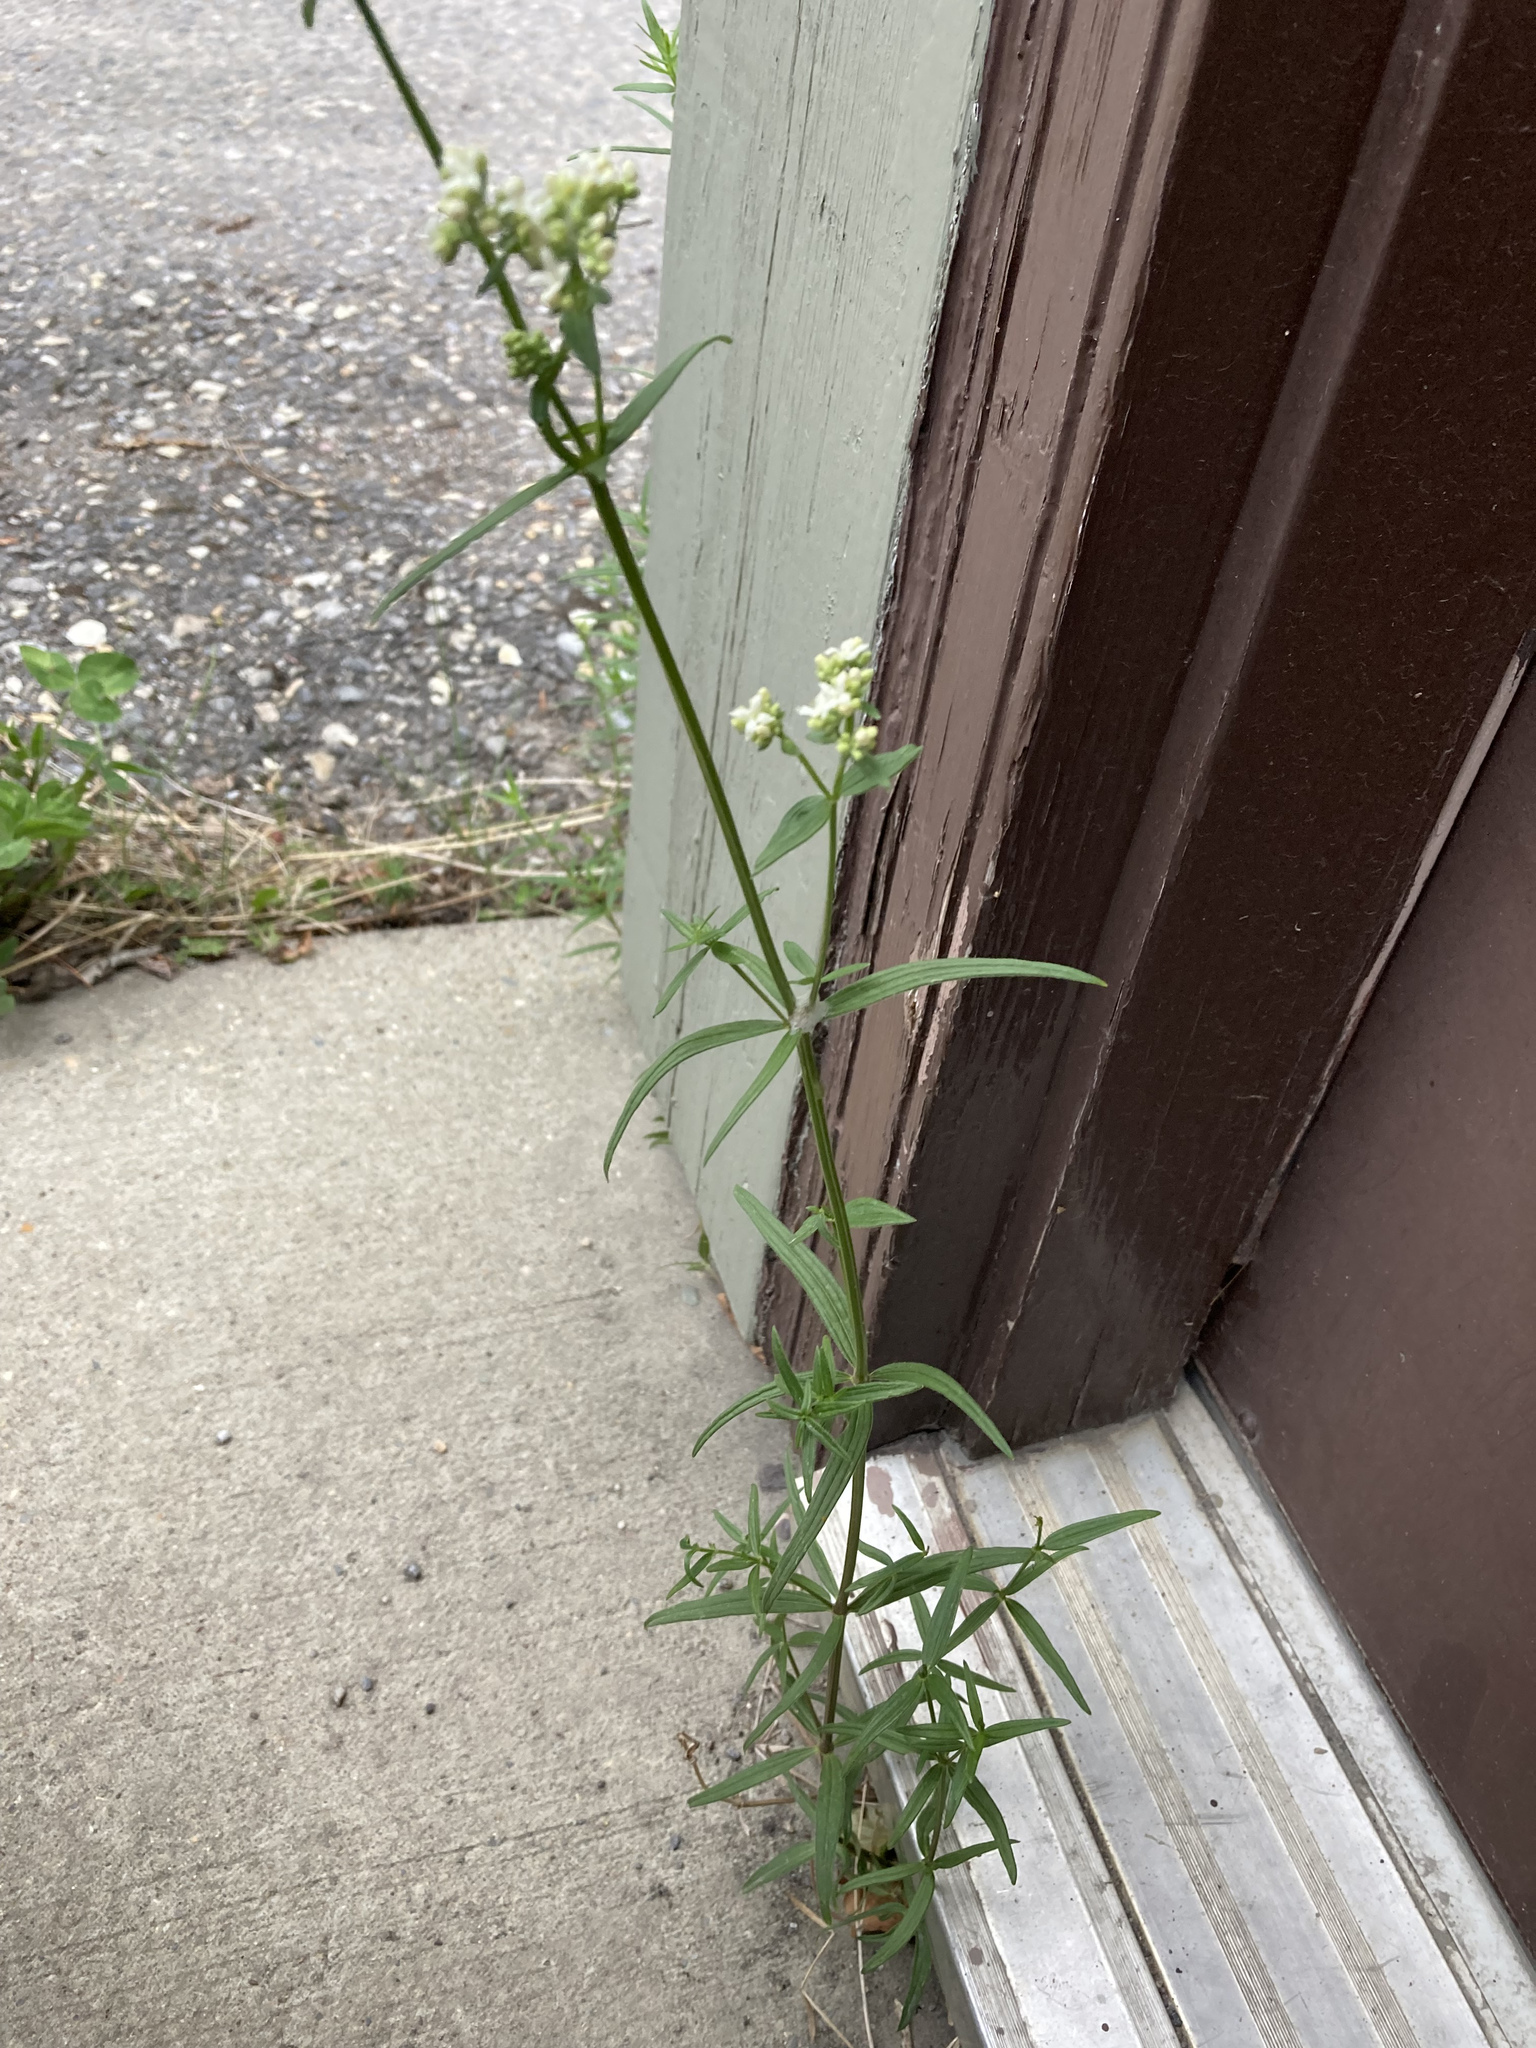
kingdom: Plantae
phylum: Tracheophyta
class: Magnoliopsida
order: Gentianales
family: Rubiaceae
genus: Galium
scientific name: Galium boreale
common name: Northern bedstraw
